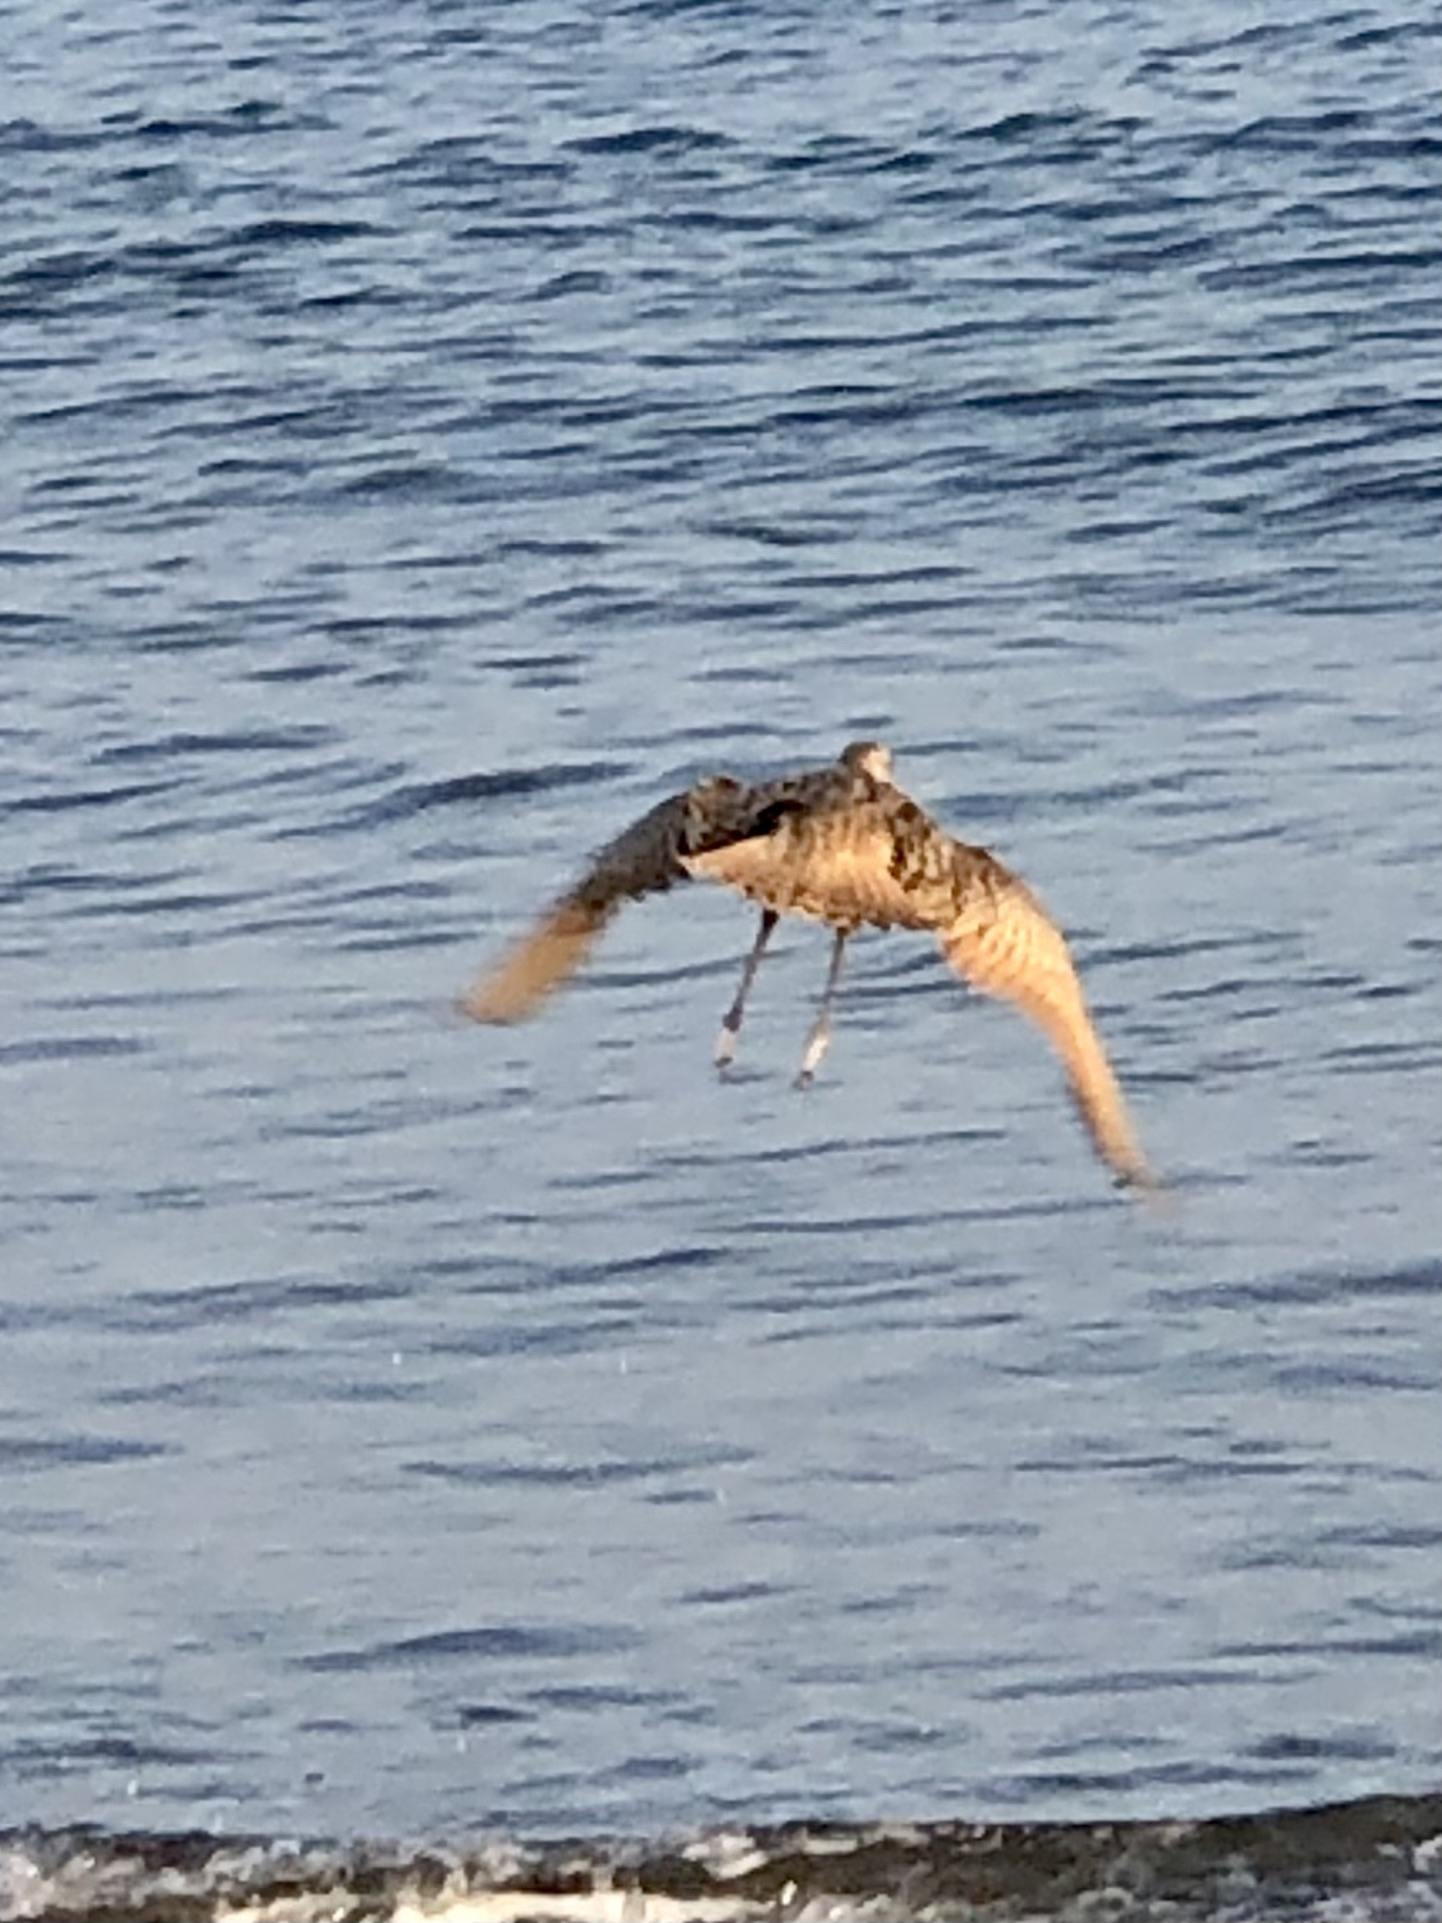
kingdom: Animalia
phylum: Chordata
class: Aves
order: Charadriiformes
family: Scolopacidae
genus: Limosa
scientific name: Limosa fedoa
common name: Marbled godwit
